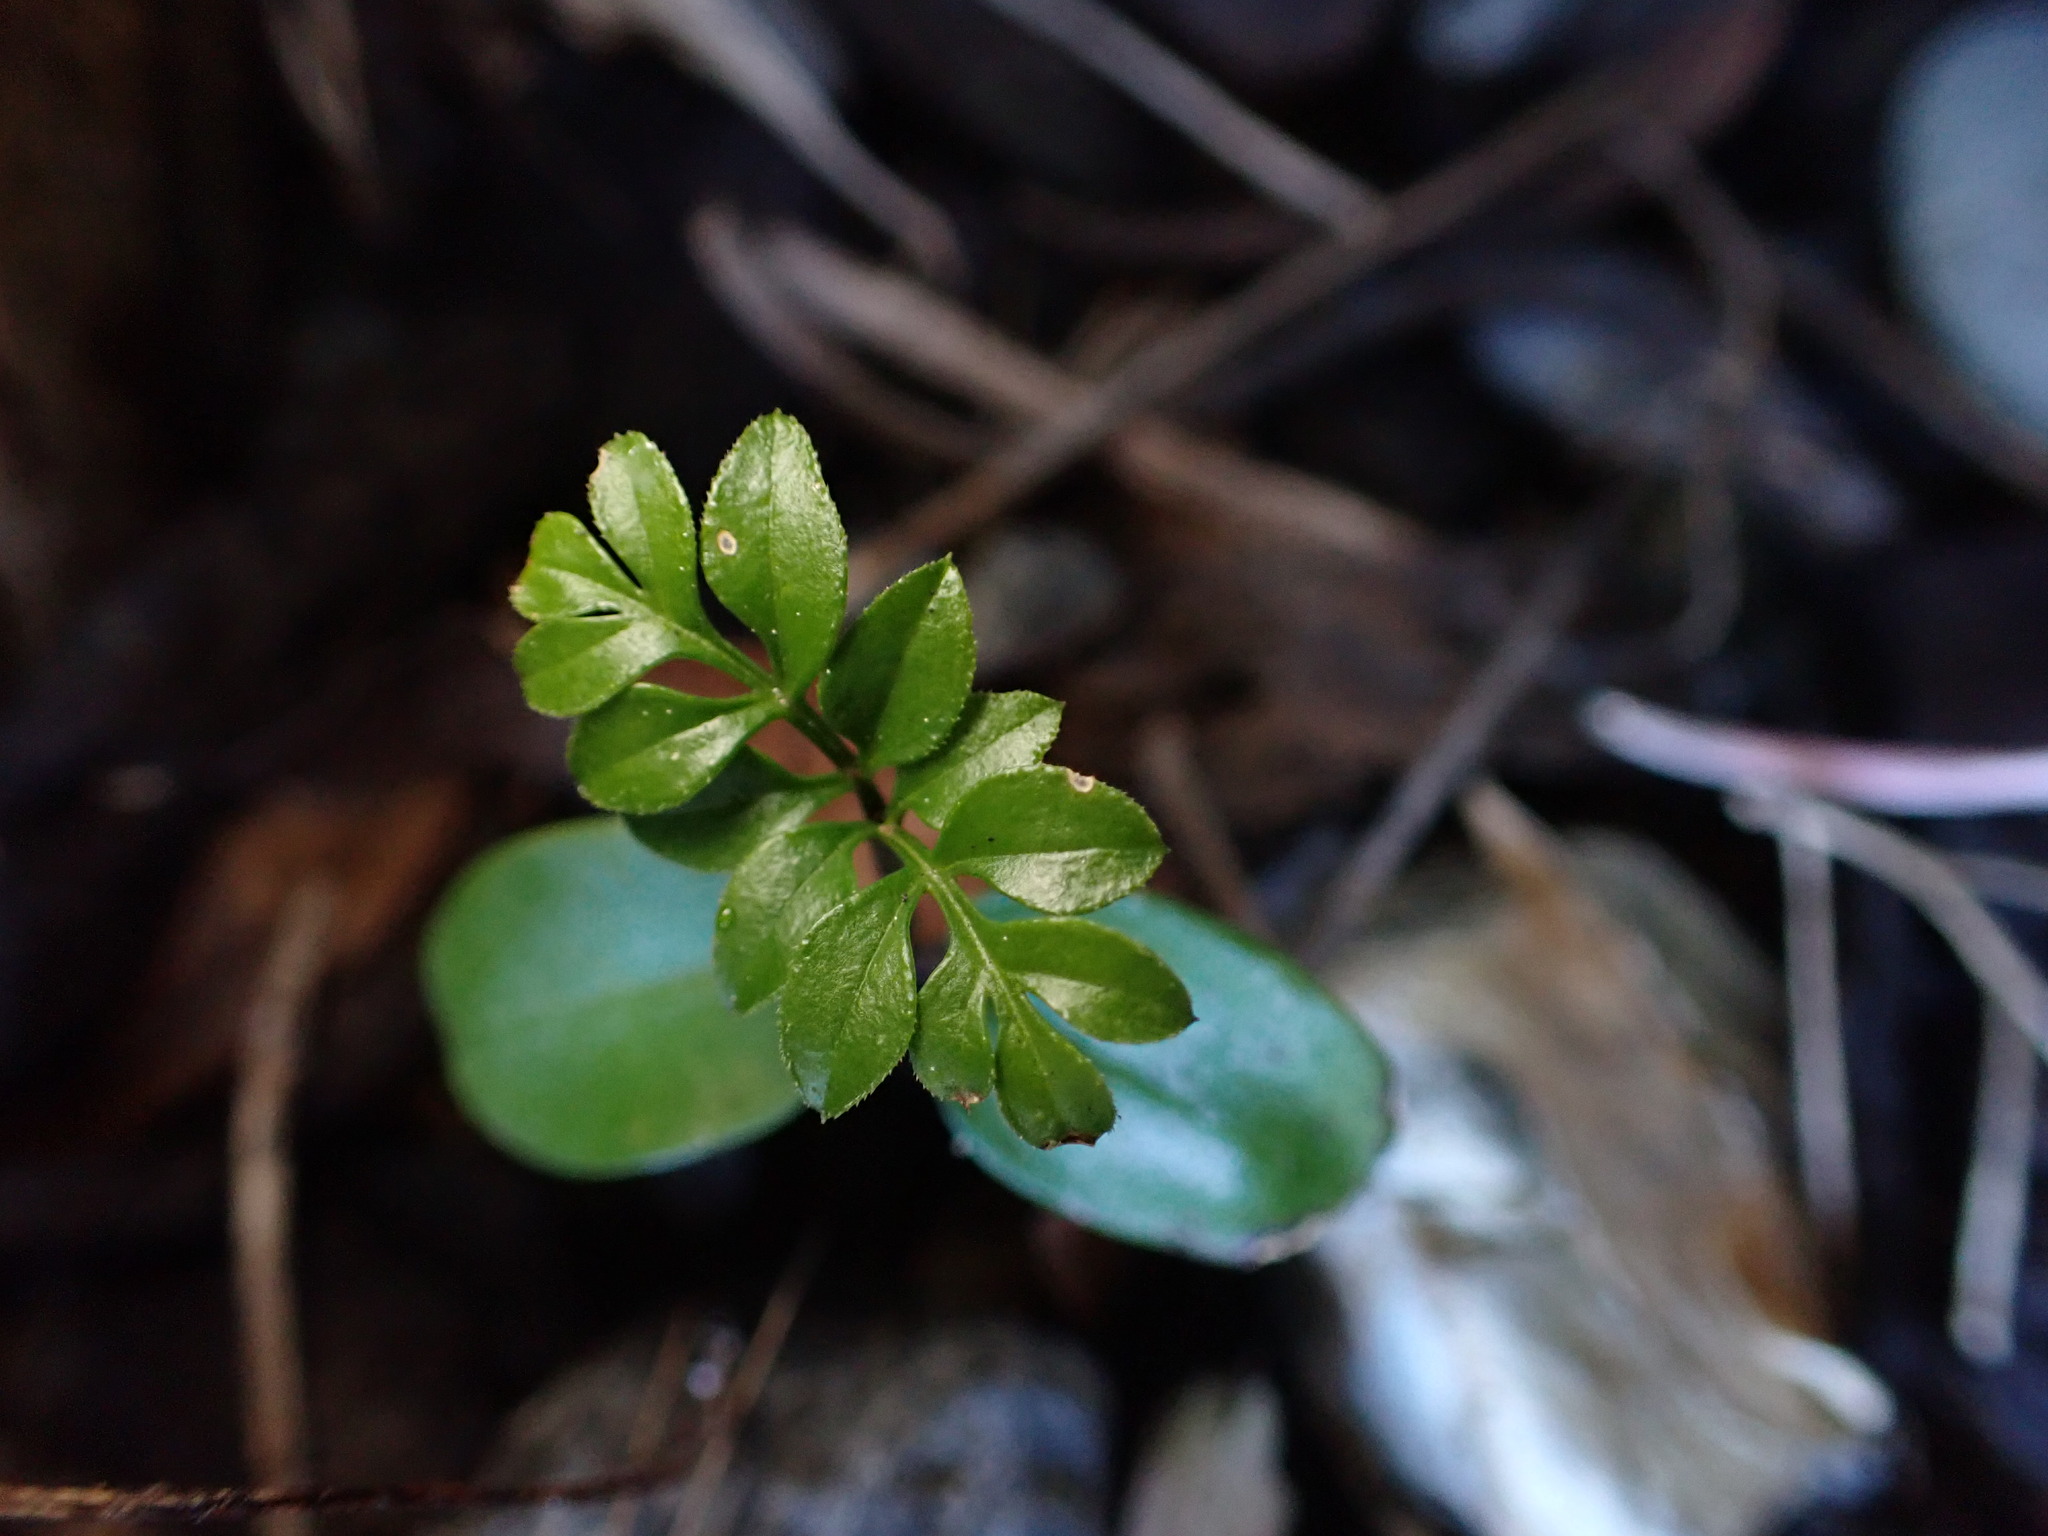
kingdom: Plantae
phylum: Tracheophyta
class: Magnoliopsida
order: Lamiales
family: Oleaceae
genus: Jasminum
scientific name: Jasminum polyanthum
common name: Pink jasmine
